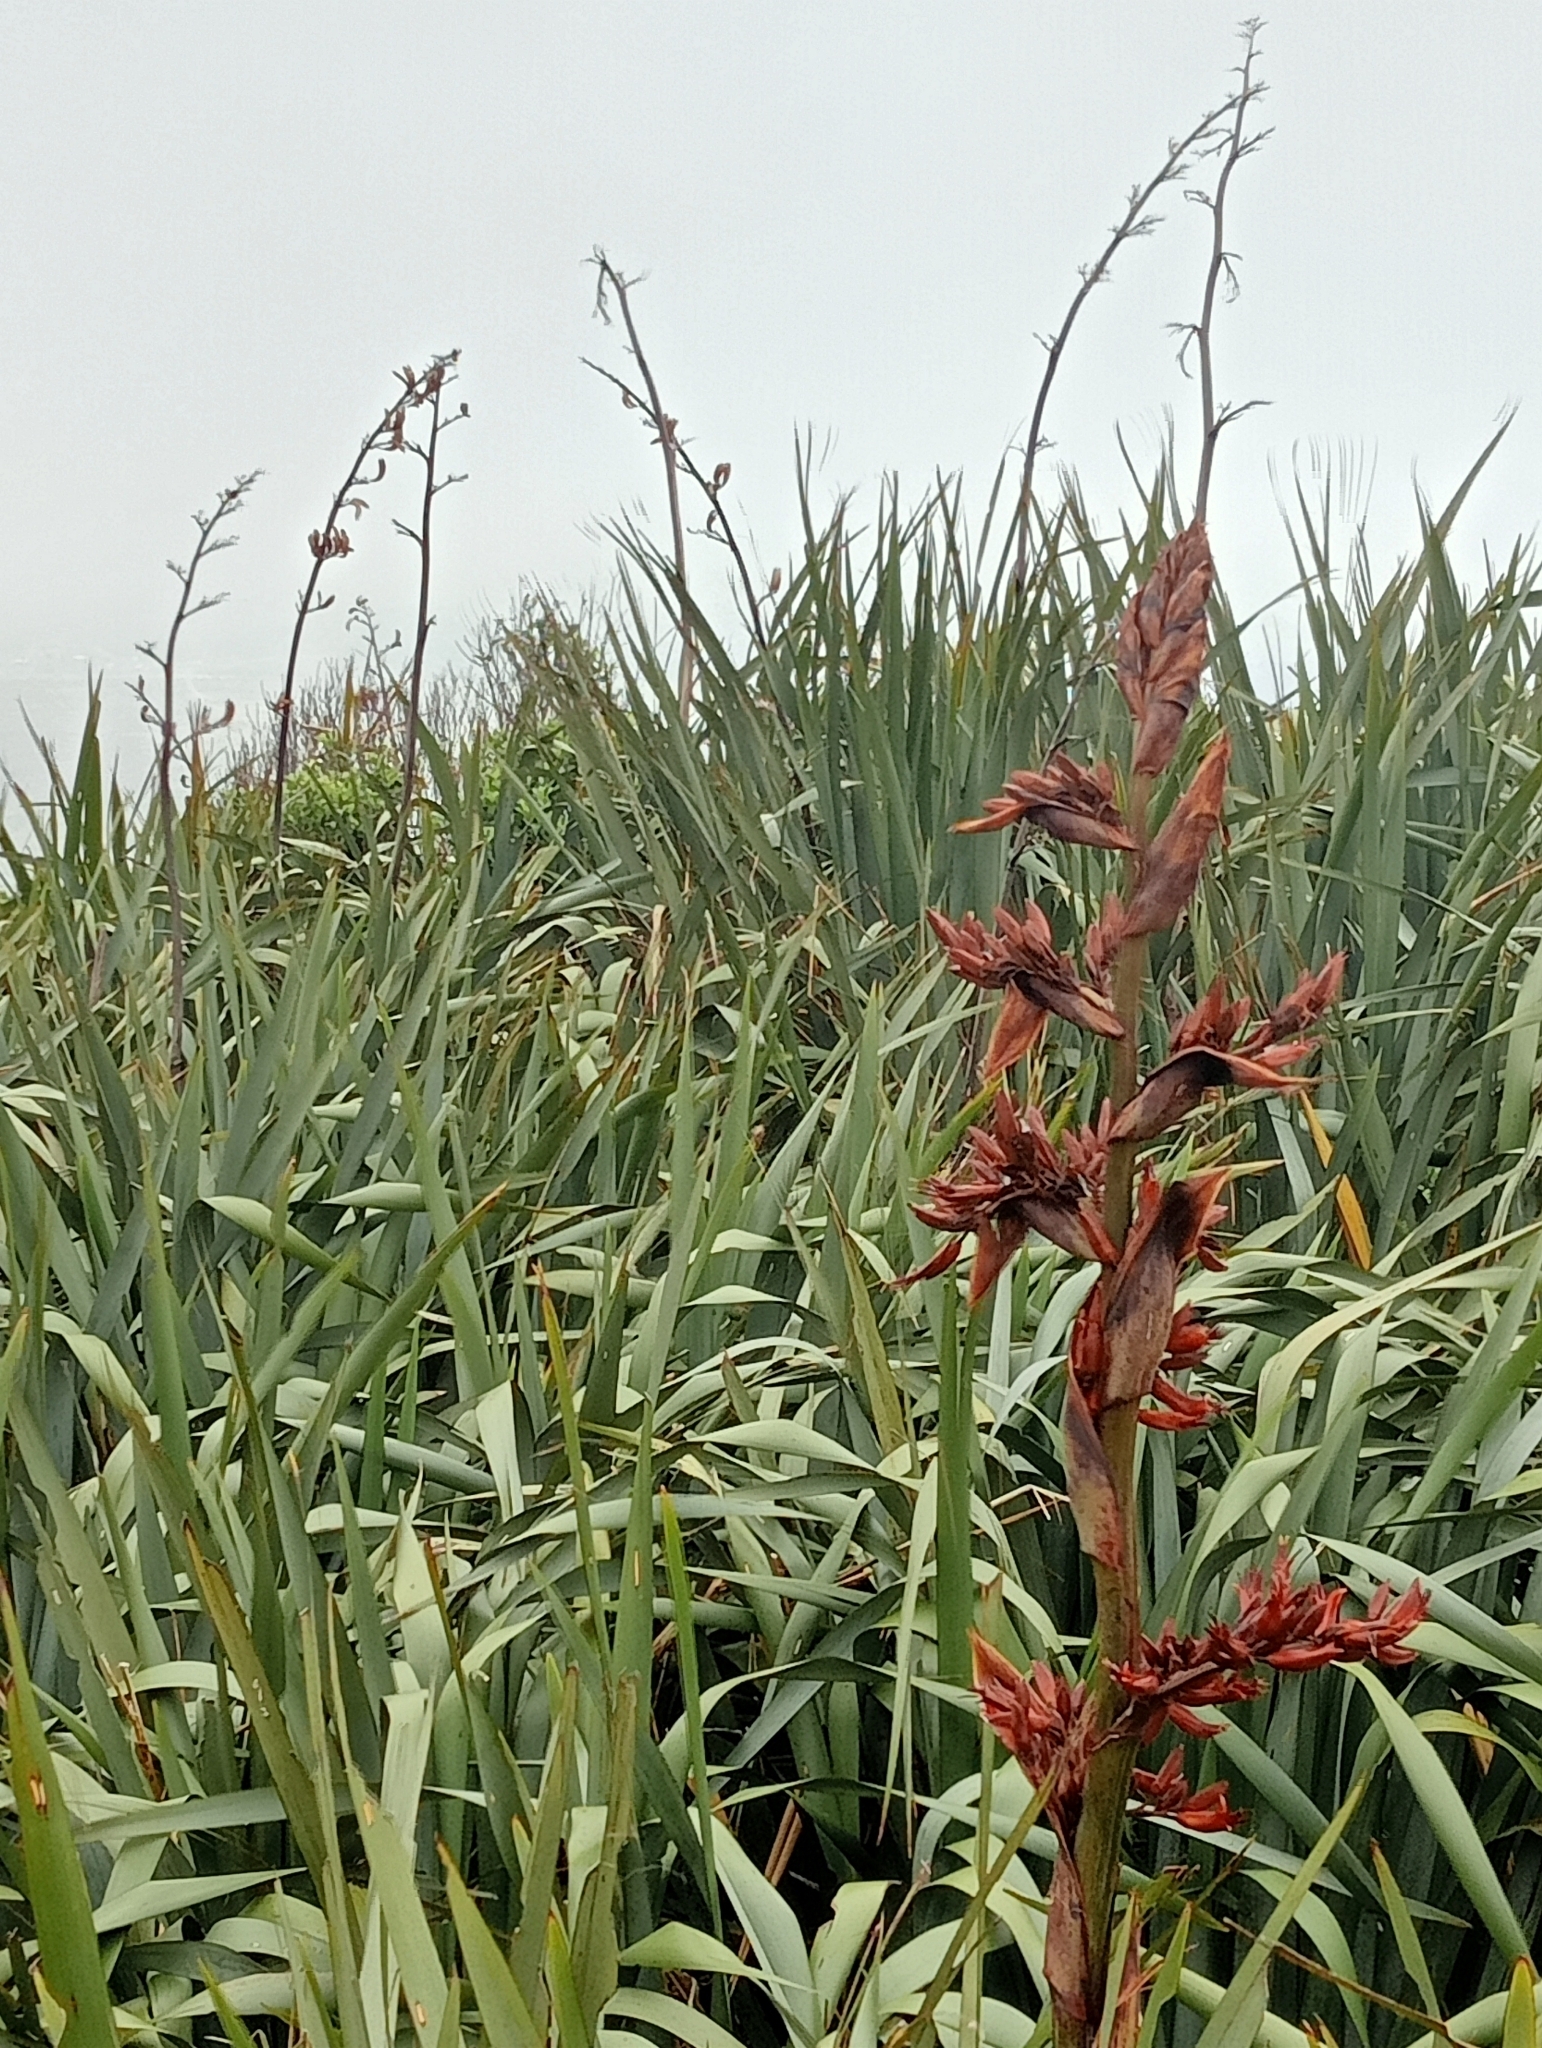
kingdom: Plantae
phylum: Tracheophyta
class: Liliopsida
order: Asparagales
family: Asphodelaceae
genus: Phormium
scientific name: Phormium tenax
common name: New zealand flax
